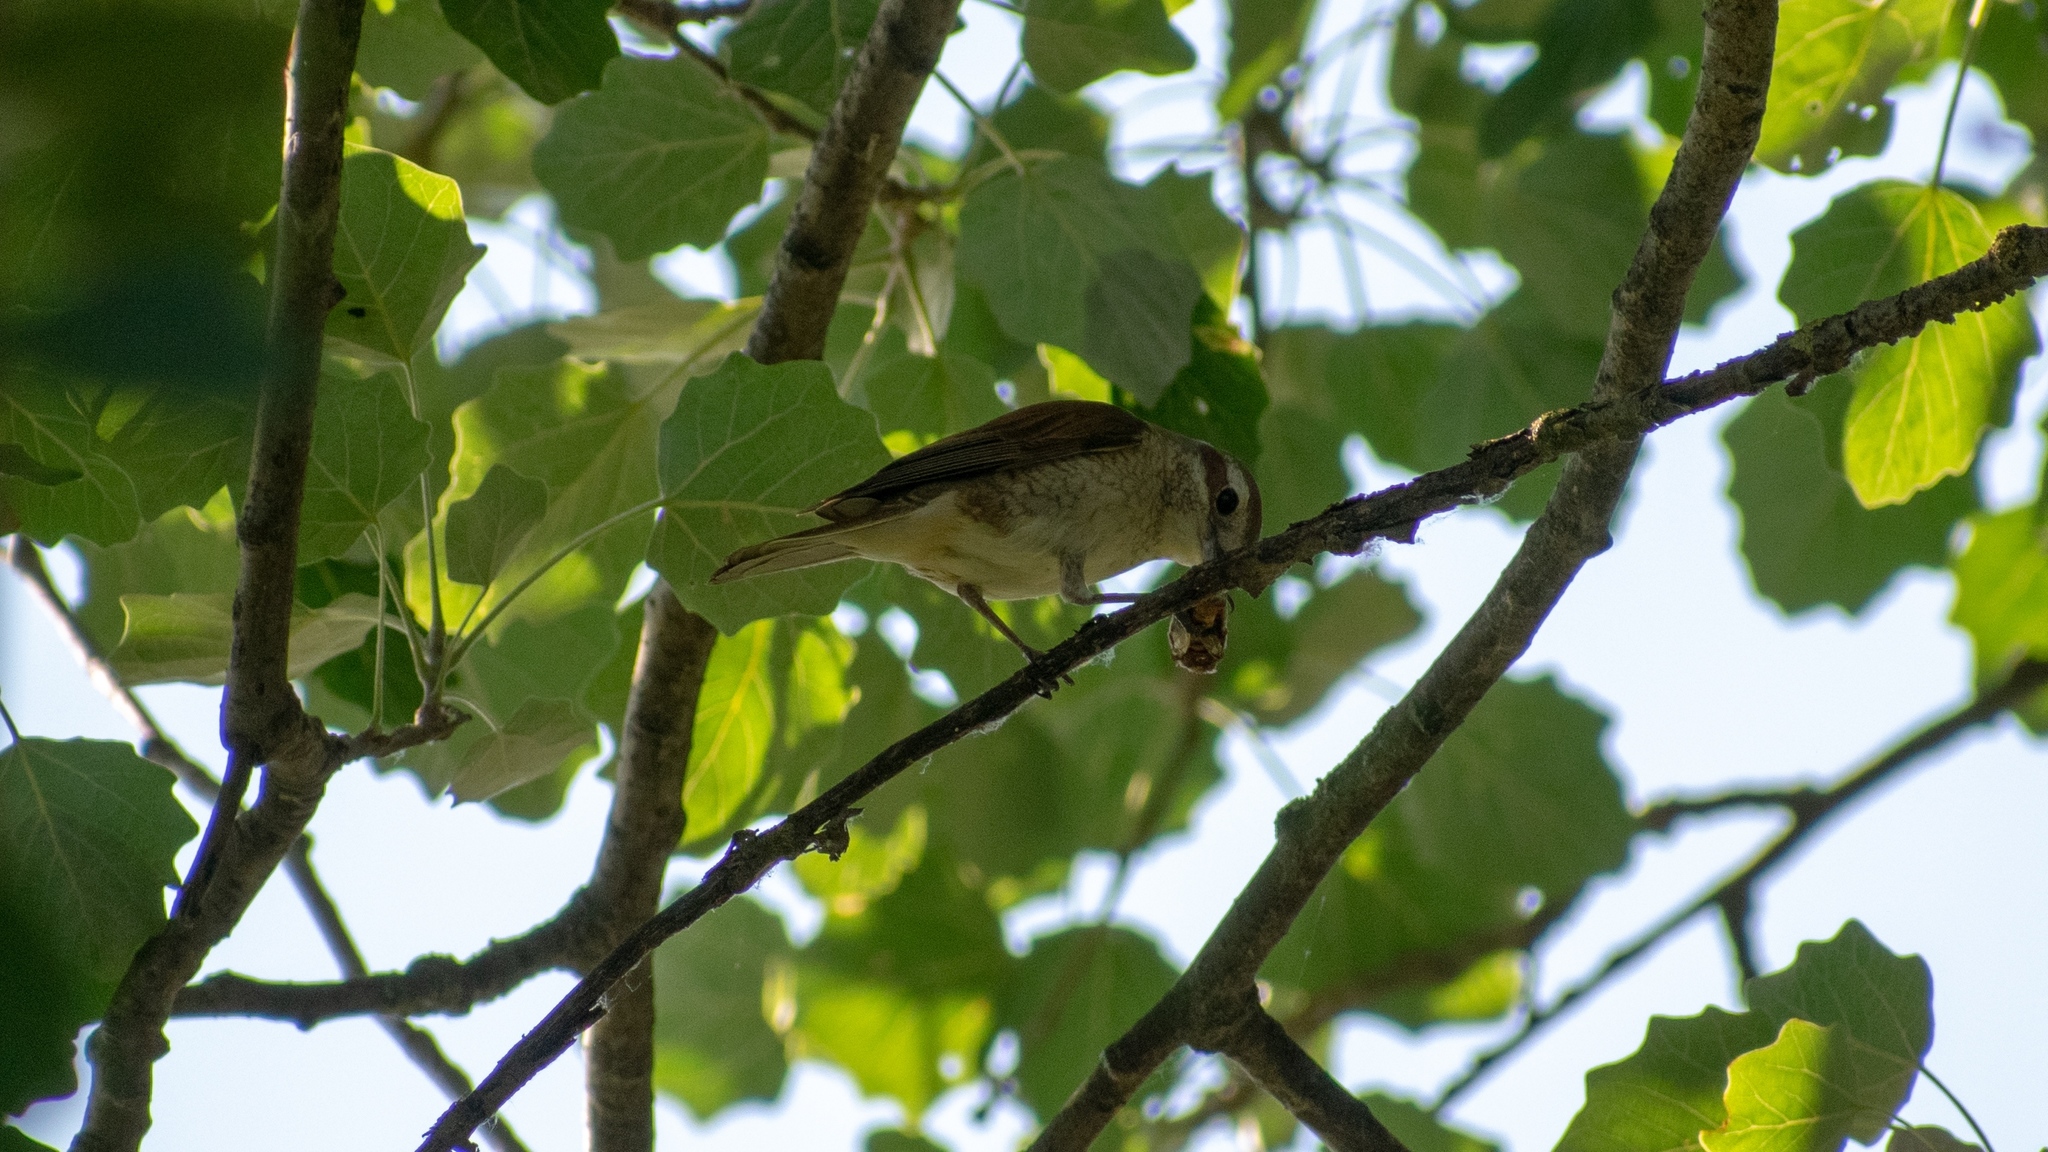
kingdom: Animalia
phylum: Chordata
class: Aves
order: Passeriformes
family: Laniidae
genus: Lanius
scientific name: Lanius collurio
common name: Red-backed shrike
